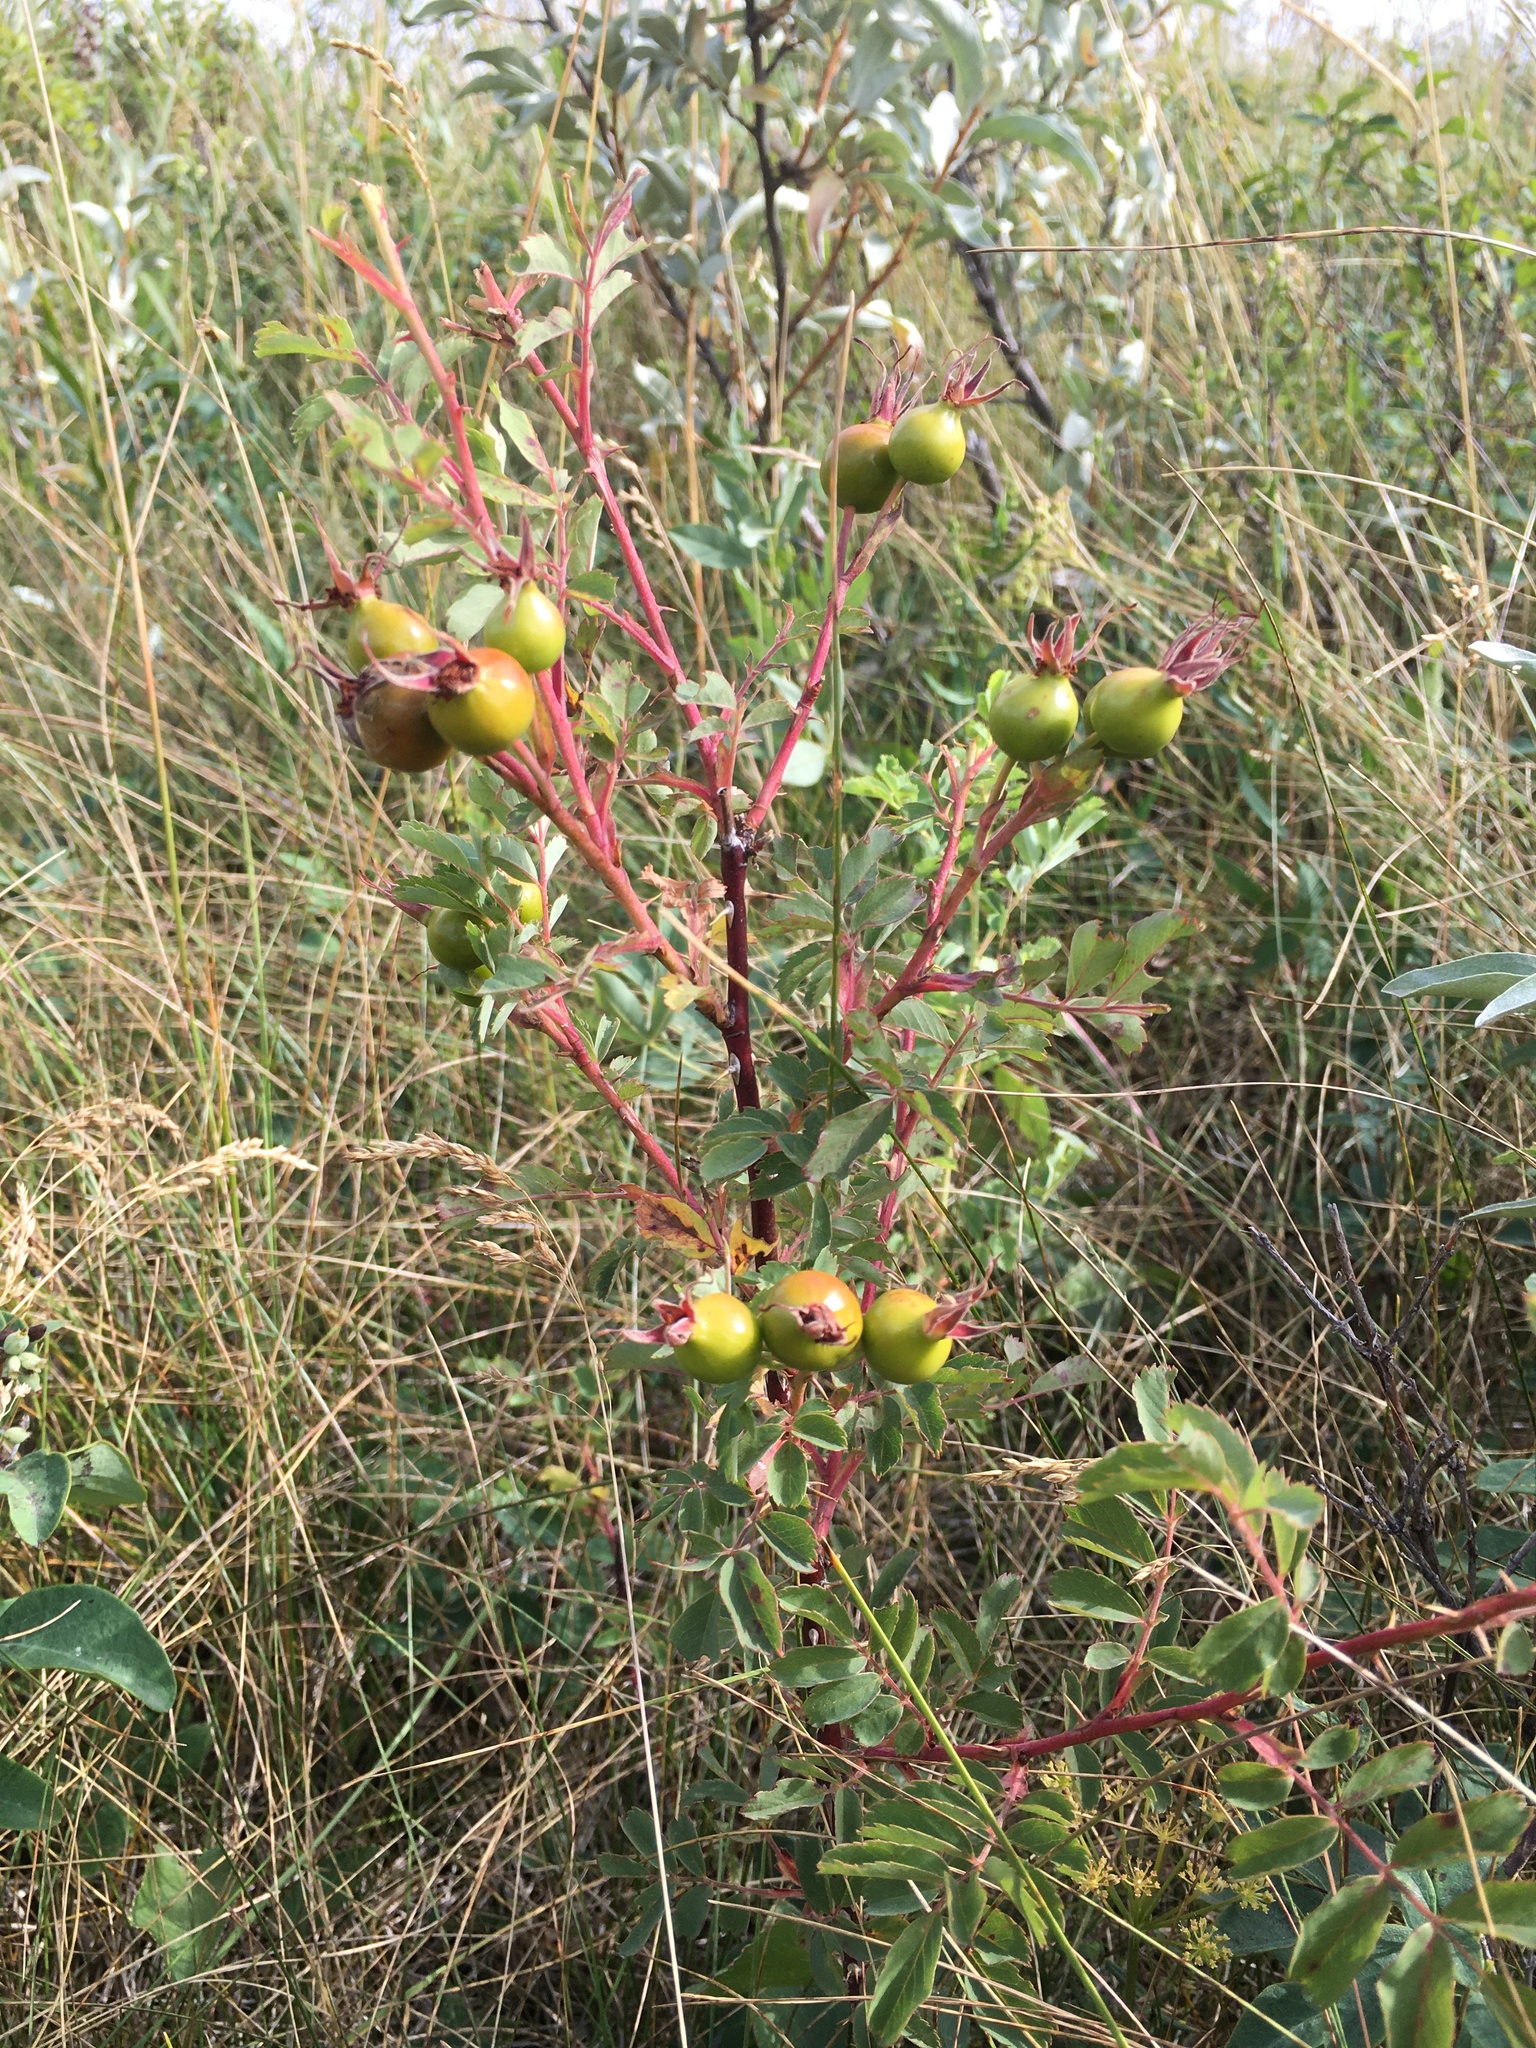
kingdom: Plantae
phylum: Tracheophyta
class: Magnoliopsida
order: Rosales
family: Rosaceae
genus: Rosa
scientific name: Rosa woodsii
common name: Woods's rose
